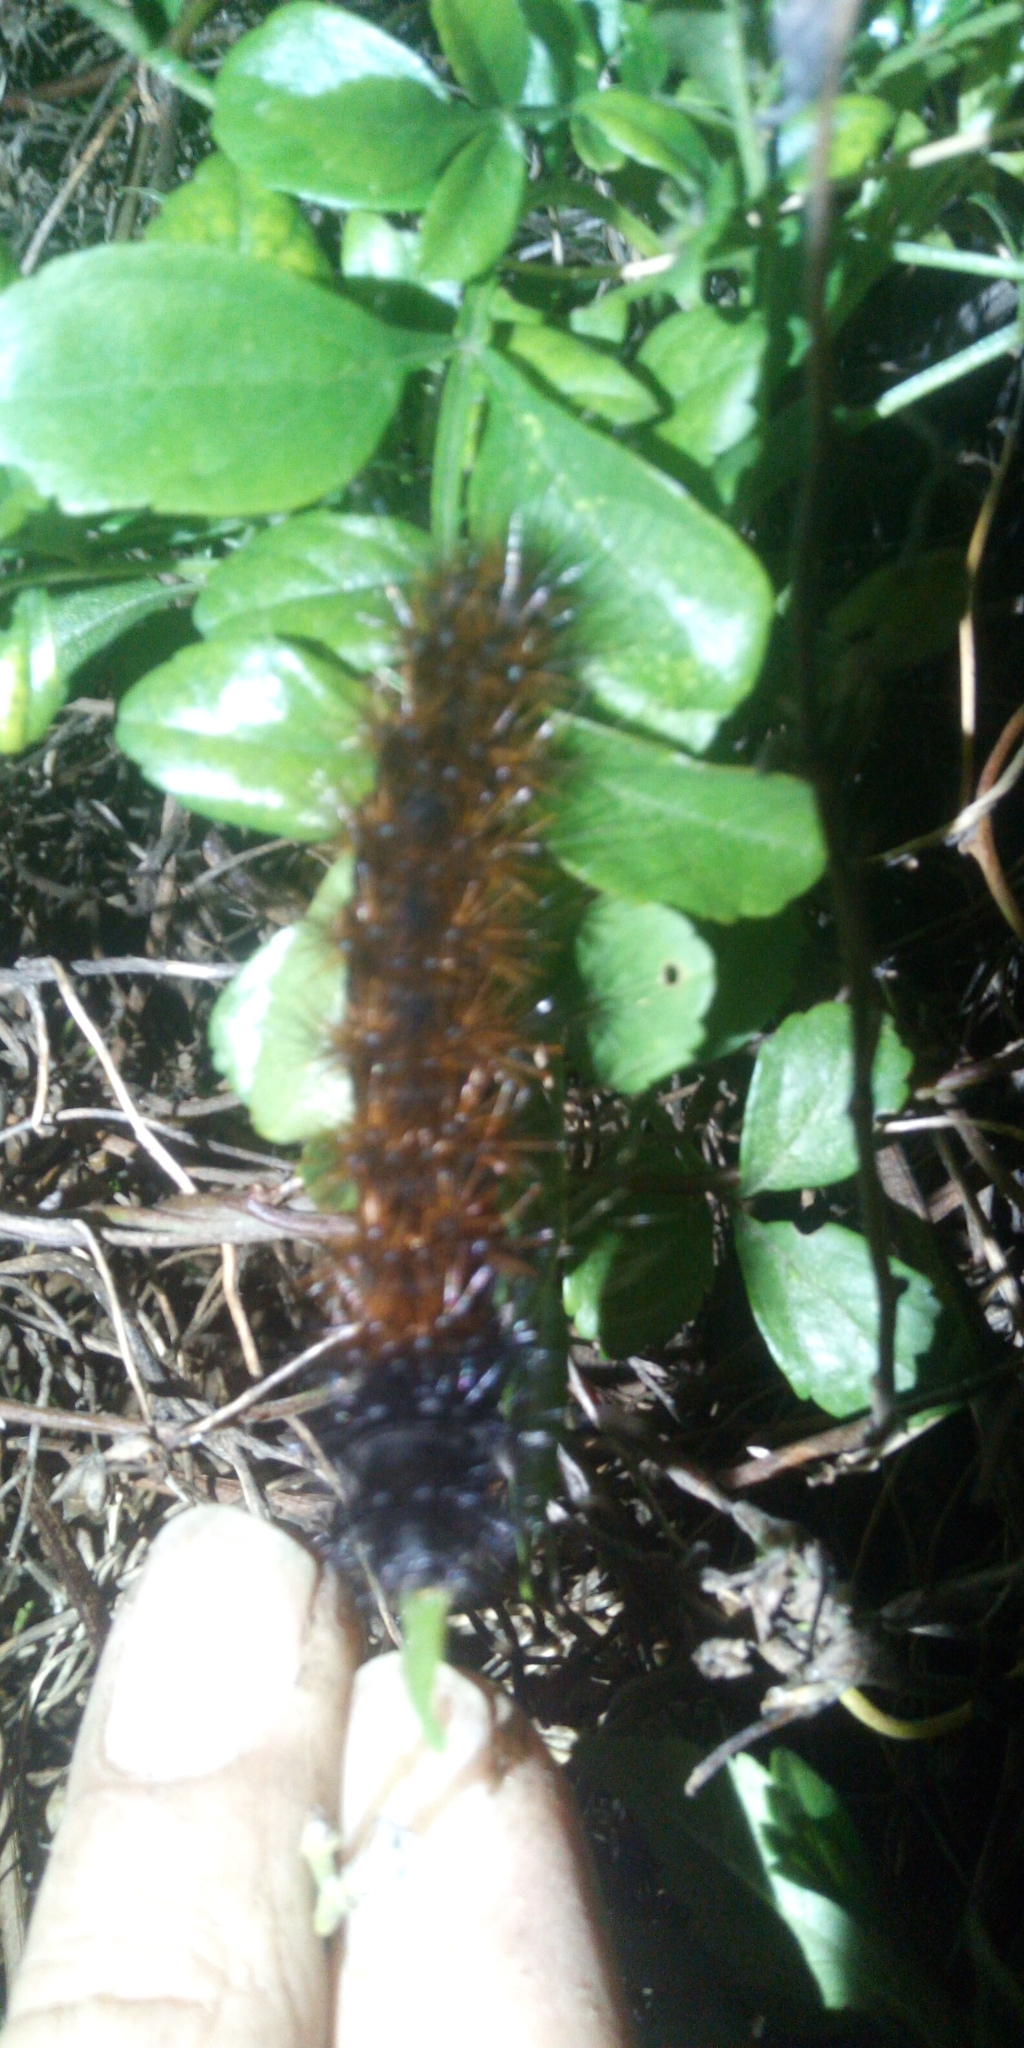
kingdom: Animalia
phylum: Arthropoda
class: Insecta
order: Lepidoptera
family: Erebidae
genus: Rhodogastria
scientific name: Rhodogastria amasis
